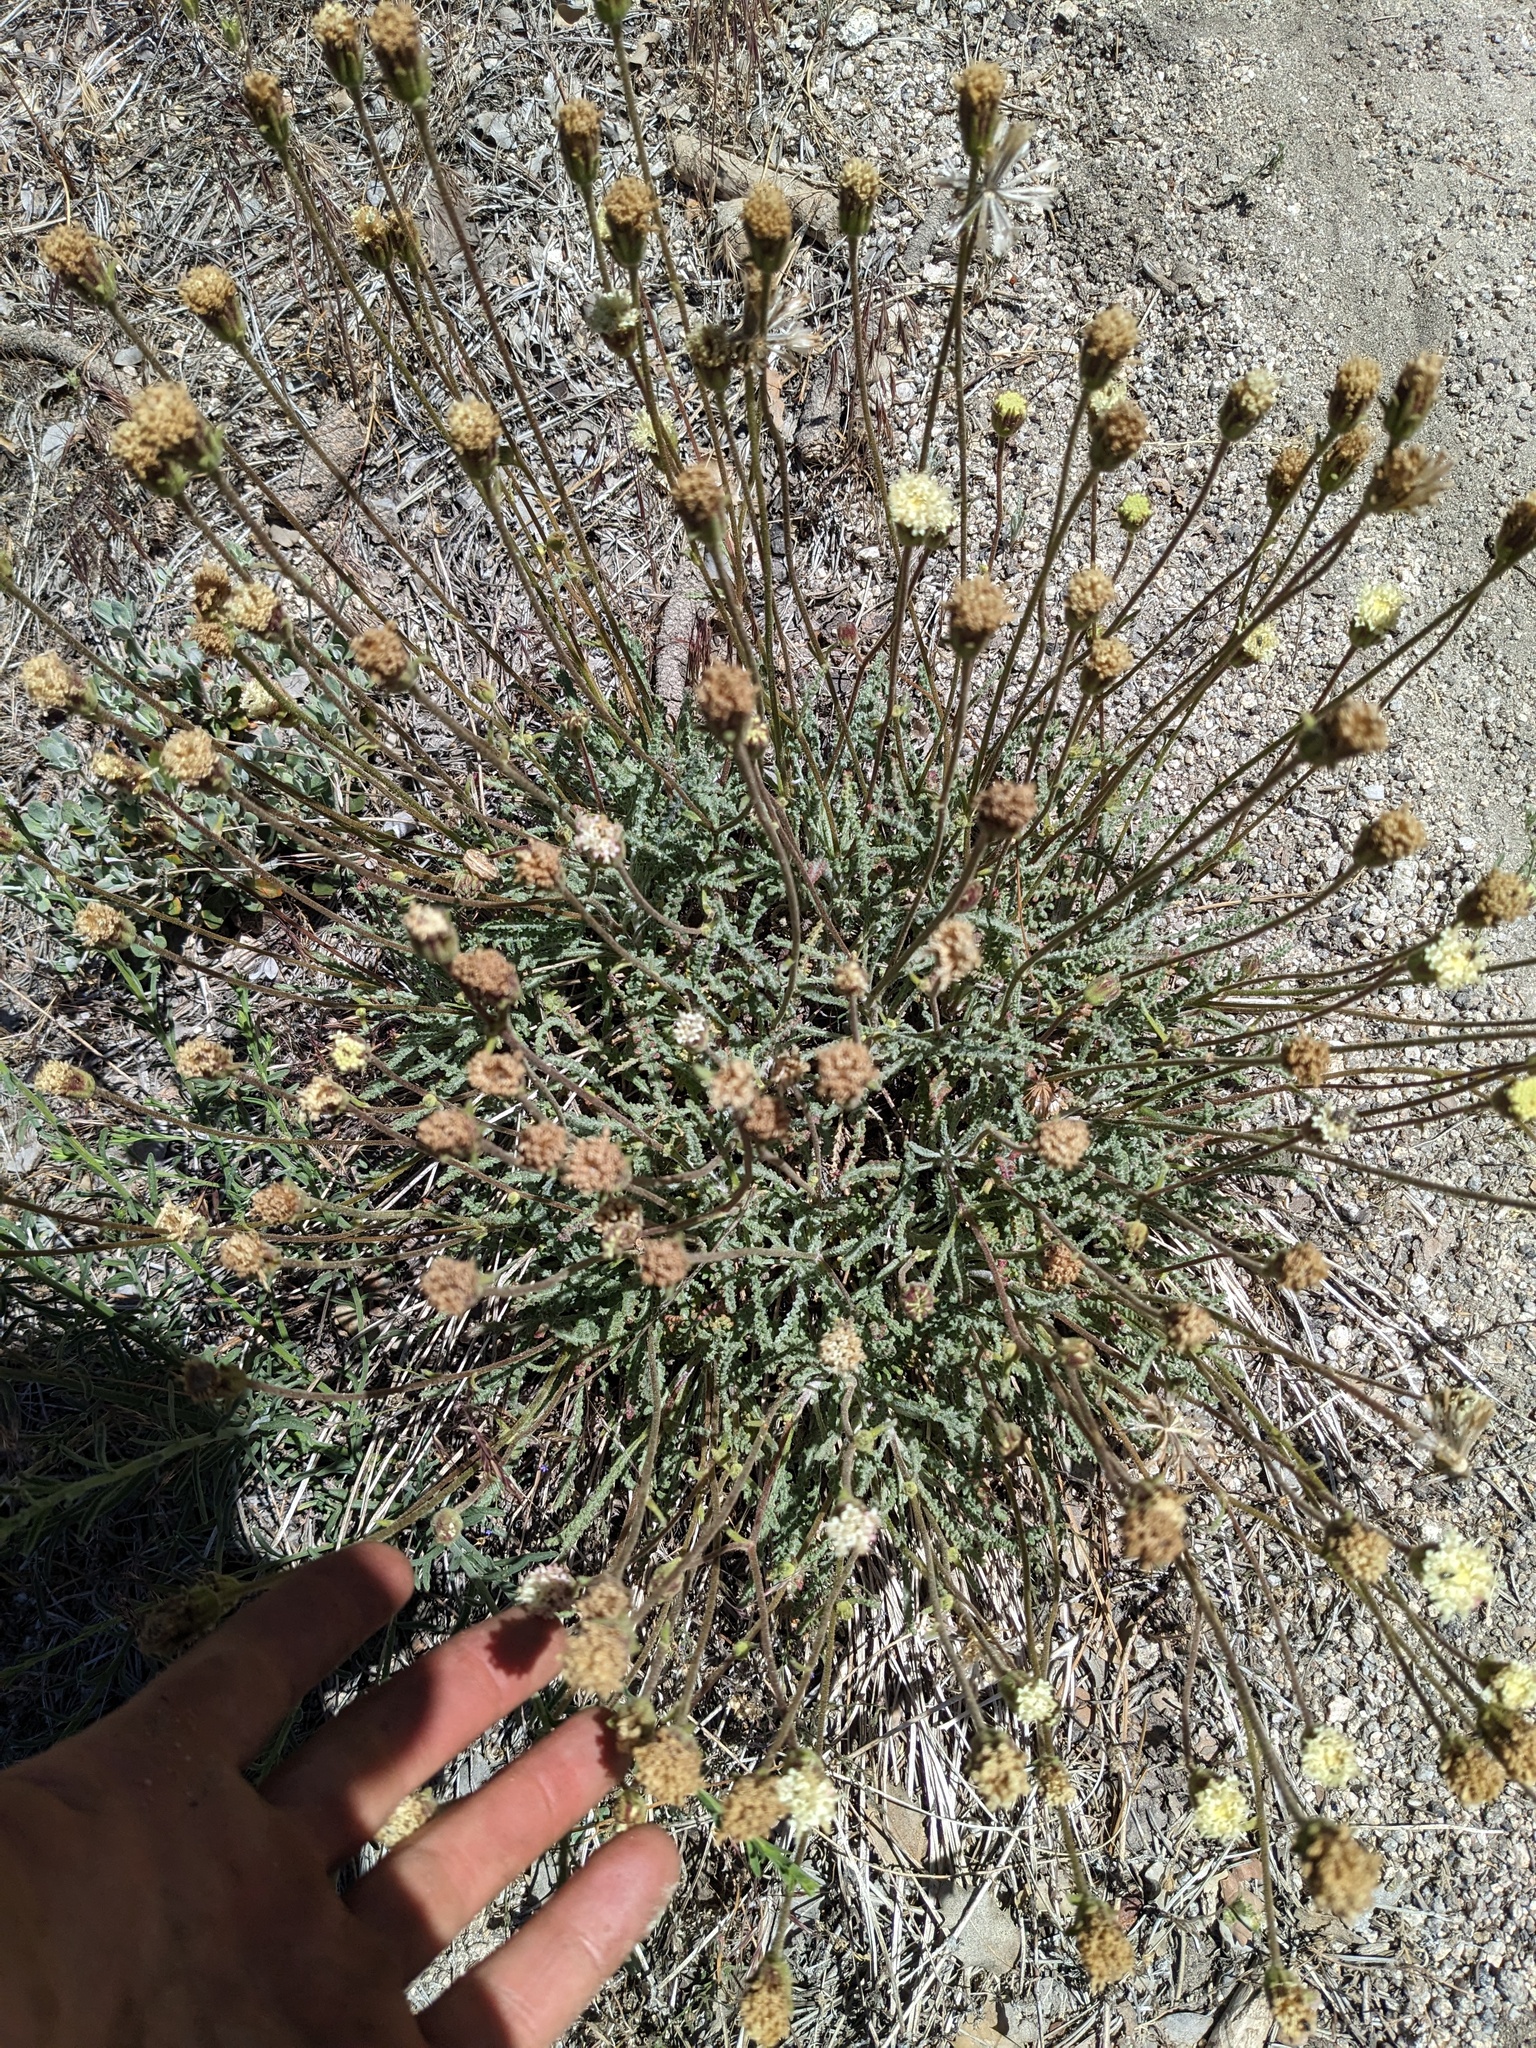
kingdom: Plantae
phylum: Tracheophyta
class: Magnoliopsida
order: Asterales
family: Asteraceae
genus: Chaenactis
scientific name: Chaenactis santolinoides
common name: Santolina pincushion
